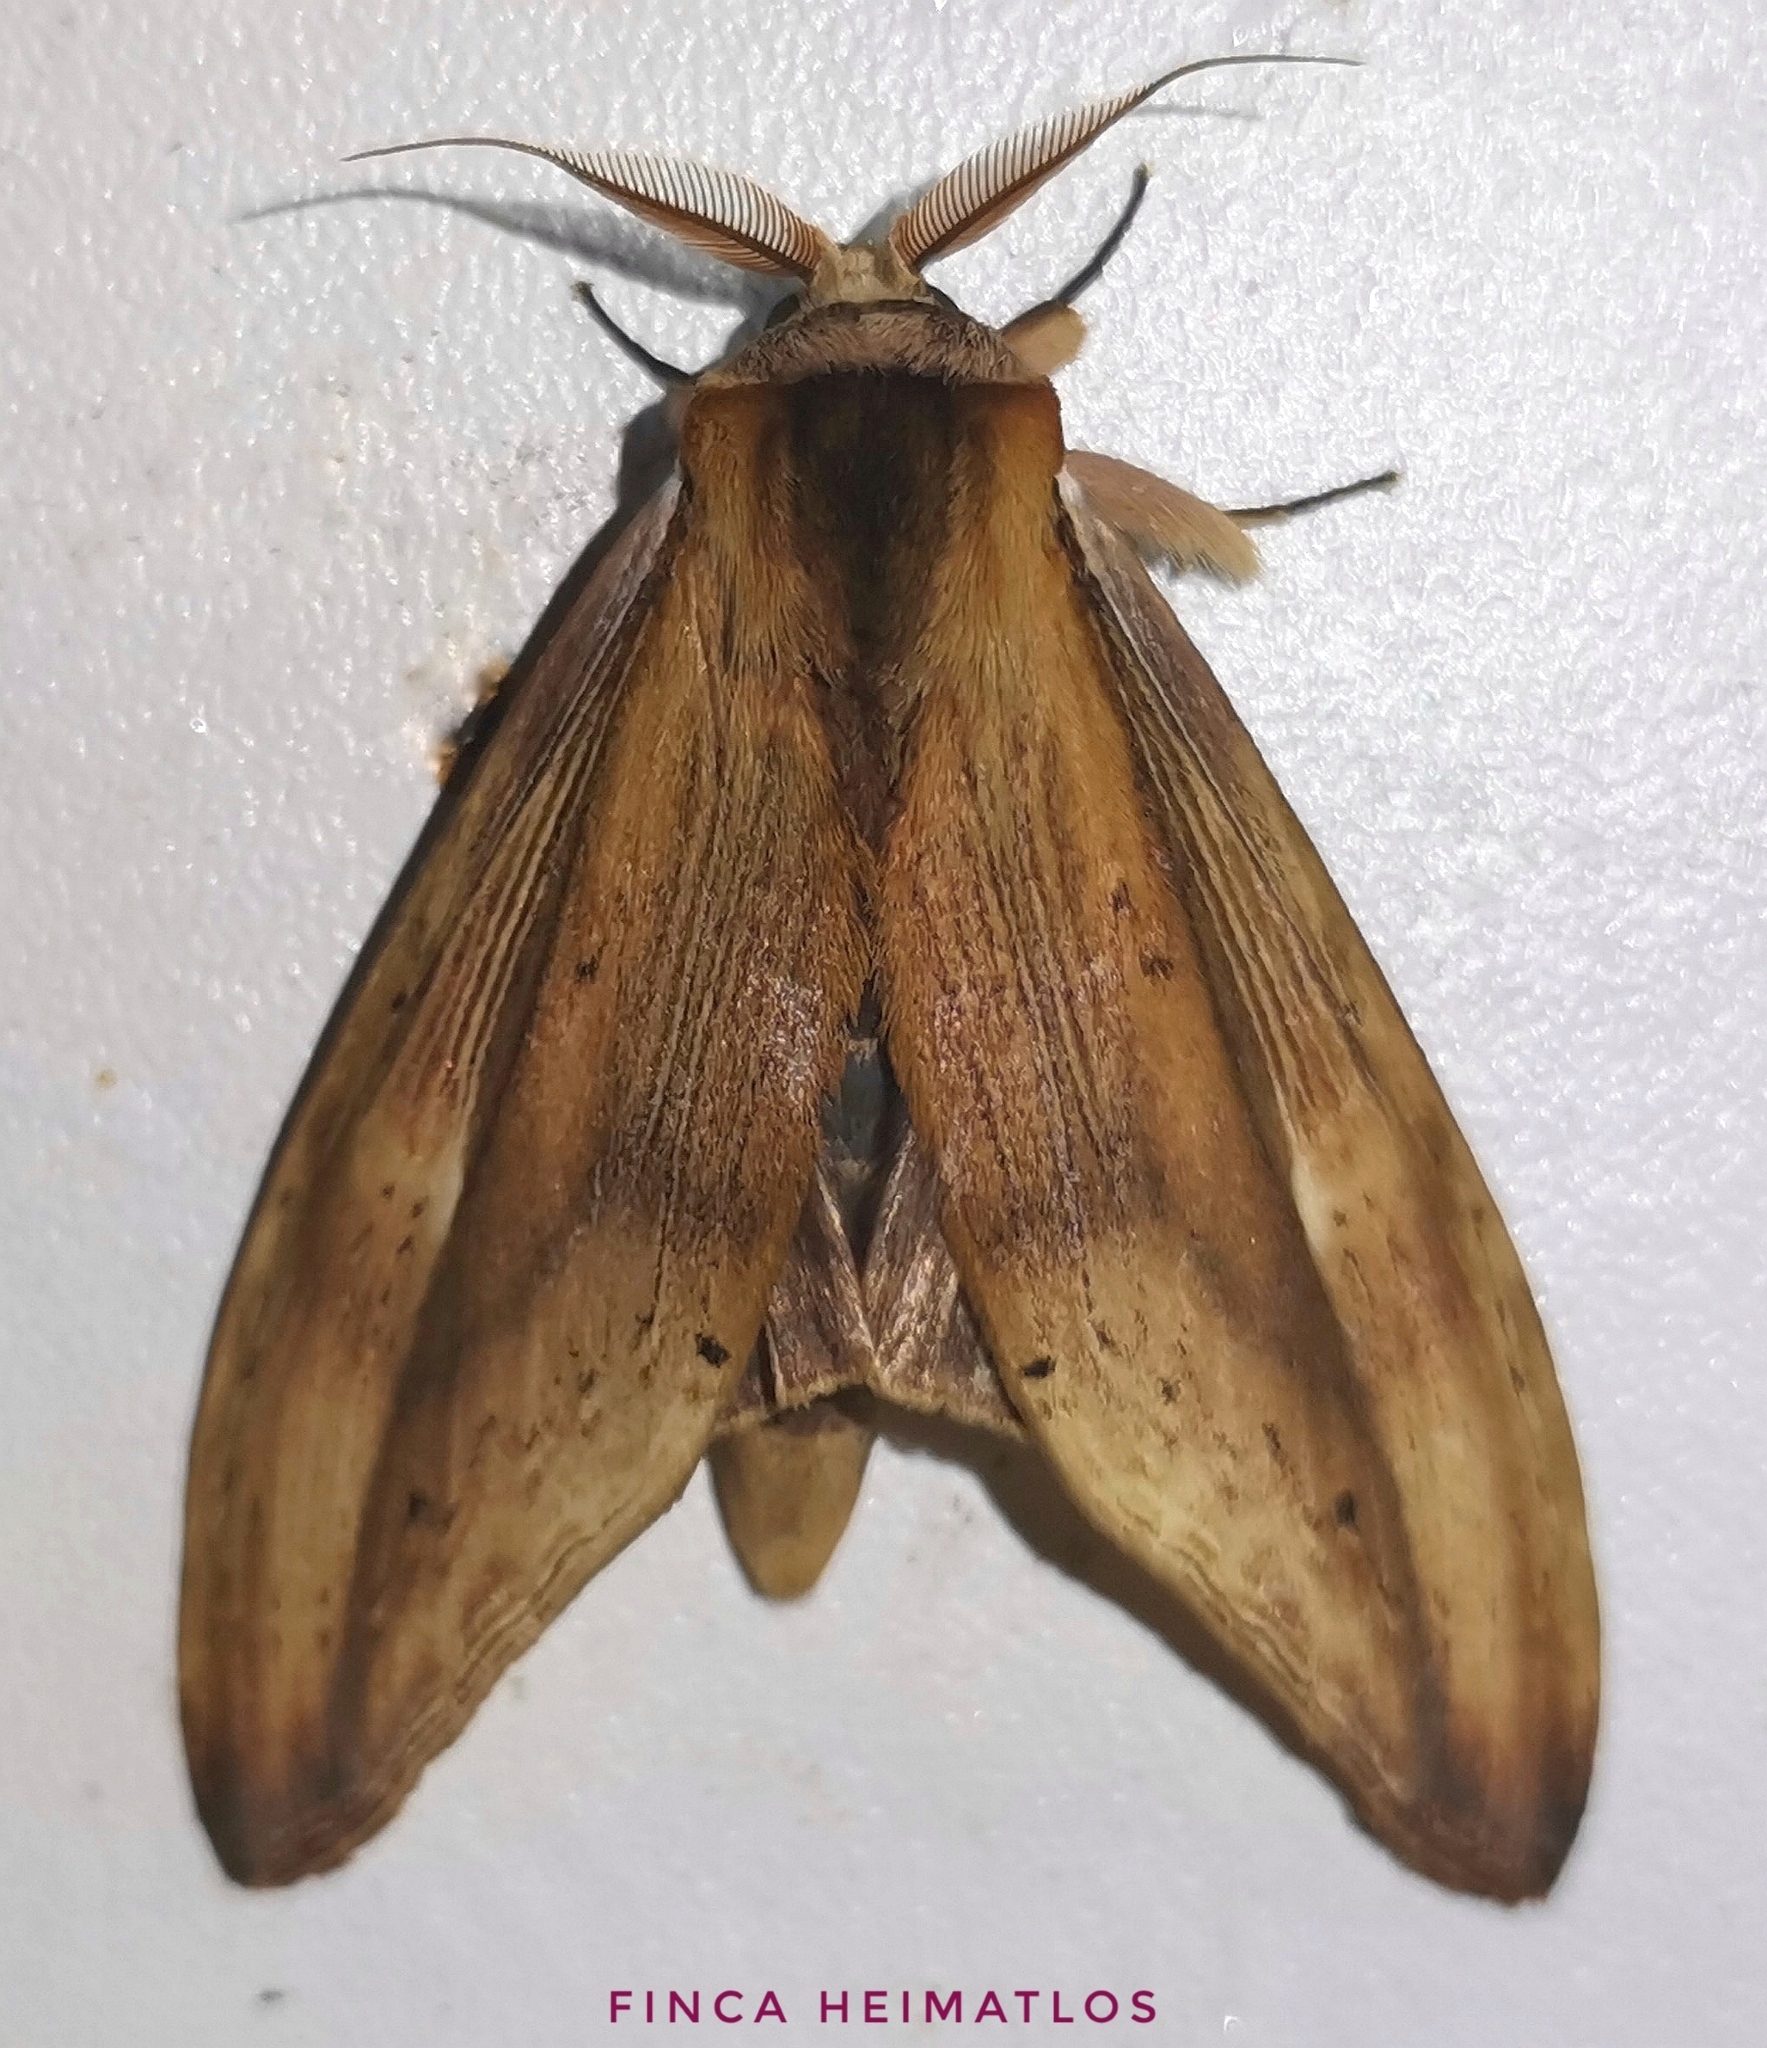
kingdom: Animalia
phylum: Arthropoda
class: Insecta
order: Lepidoptera
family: Notodontidae
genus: Truncaptera
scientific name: Truncaptera
